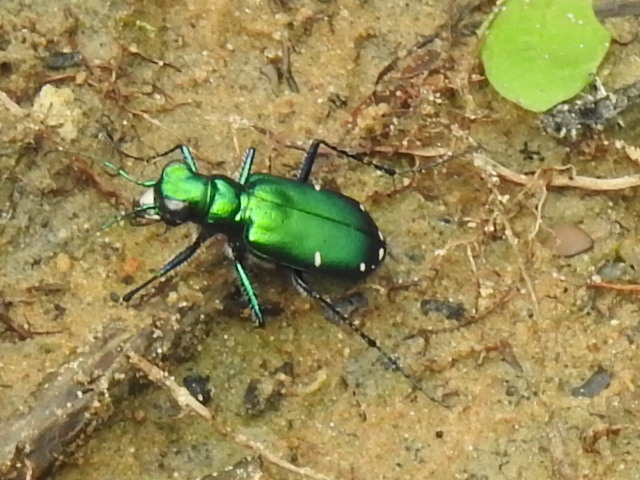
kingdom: Animalia
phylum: Arthropoda
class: Insecta
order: Coleoptera
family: Carabidae
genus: Cicindela
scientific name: Cicindela sexguttata
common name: Six-spotted tiger beetle
